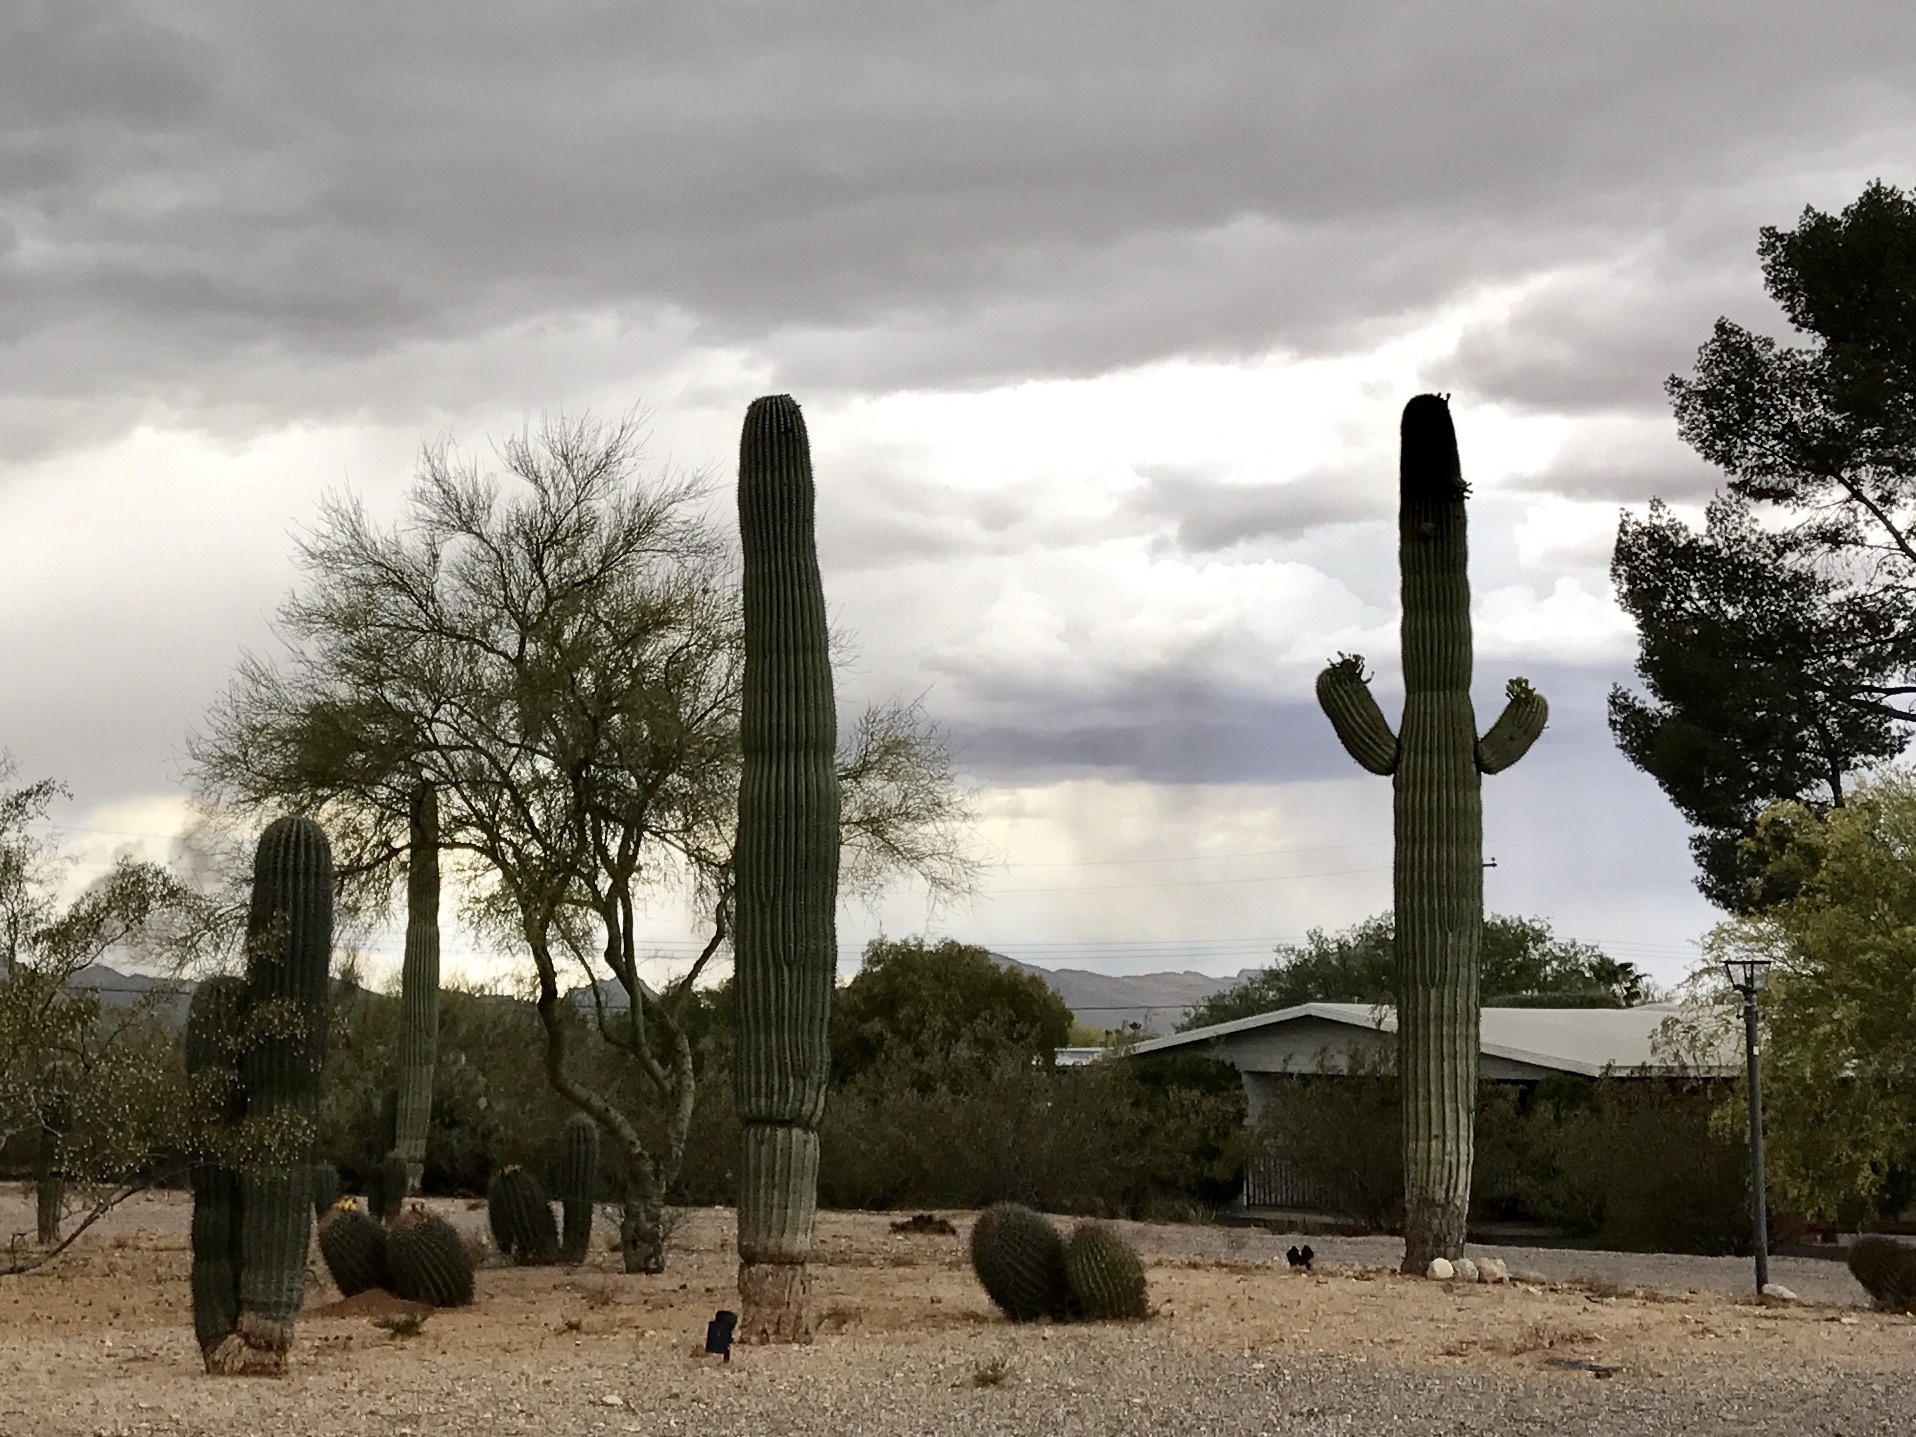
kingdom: Plantae
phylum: Tracheophyta
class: Magnoliopsida
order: Caryophyllales
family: Cactaceae
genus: Carnegiea
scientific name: Carnegiea gigantea
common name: Saguaro
